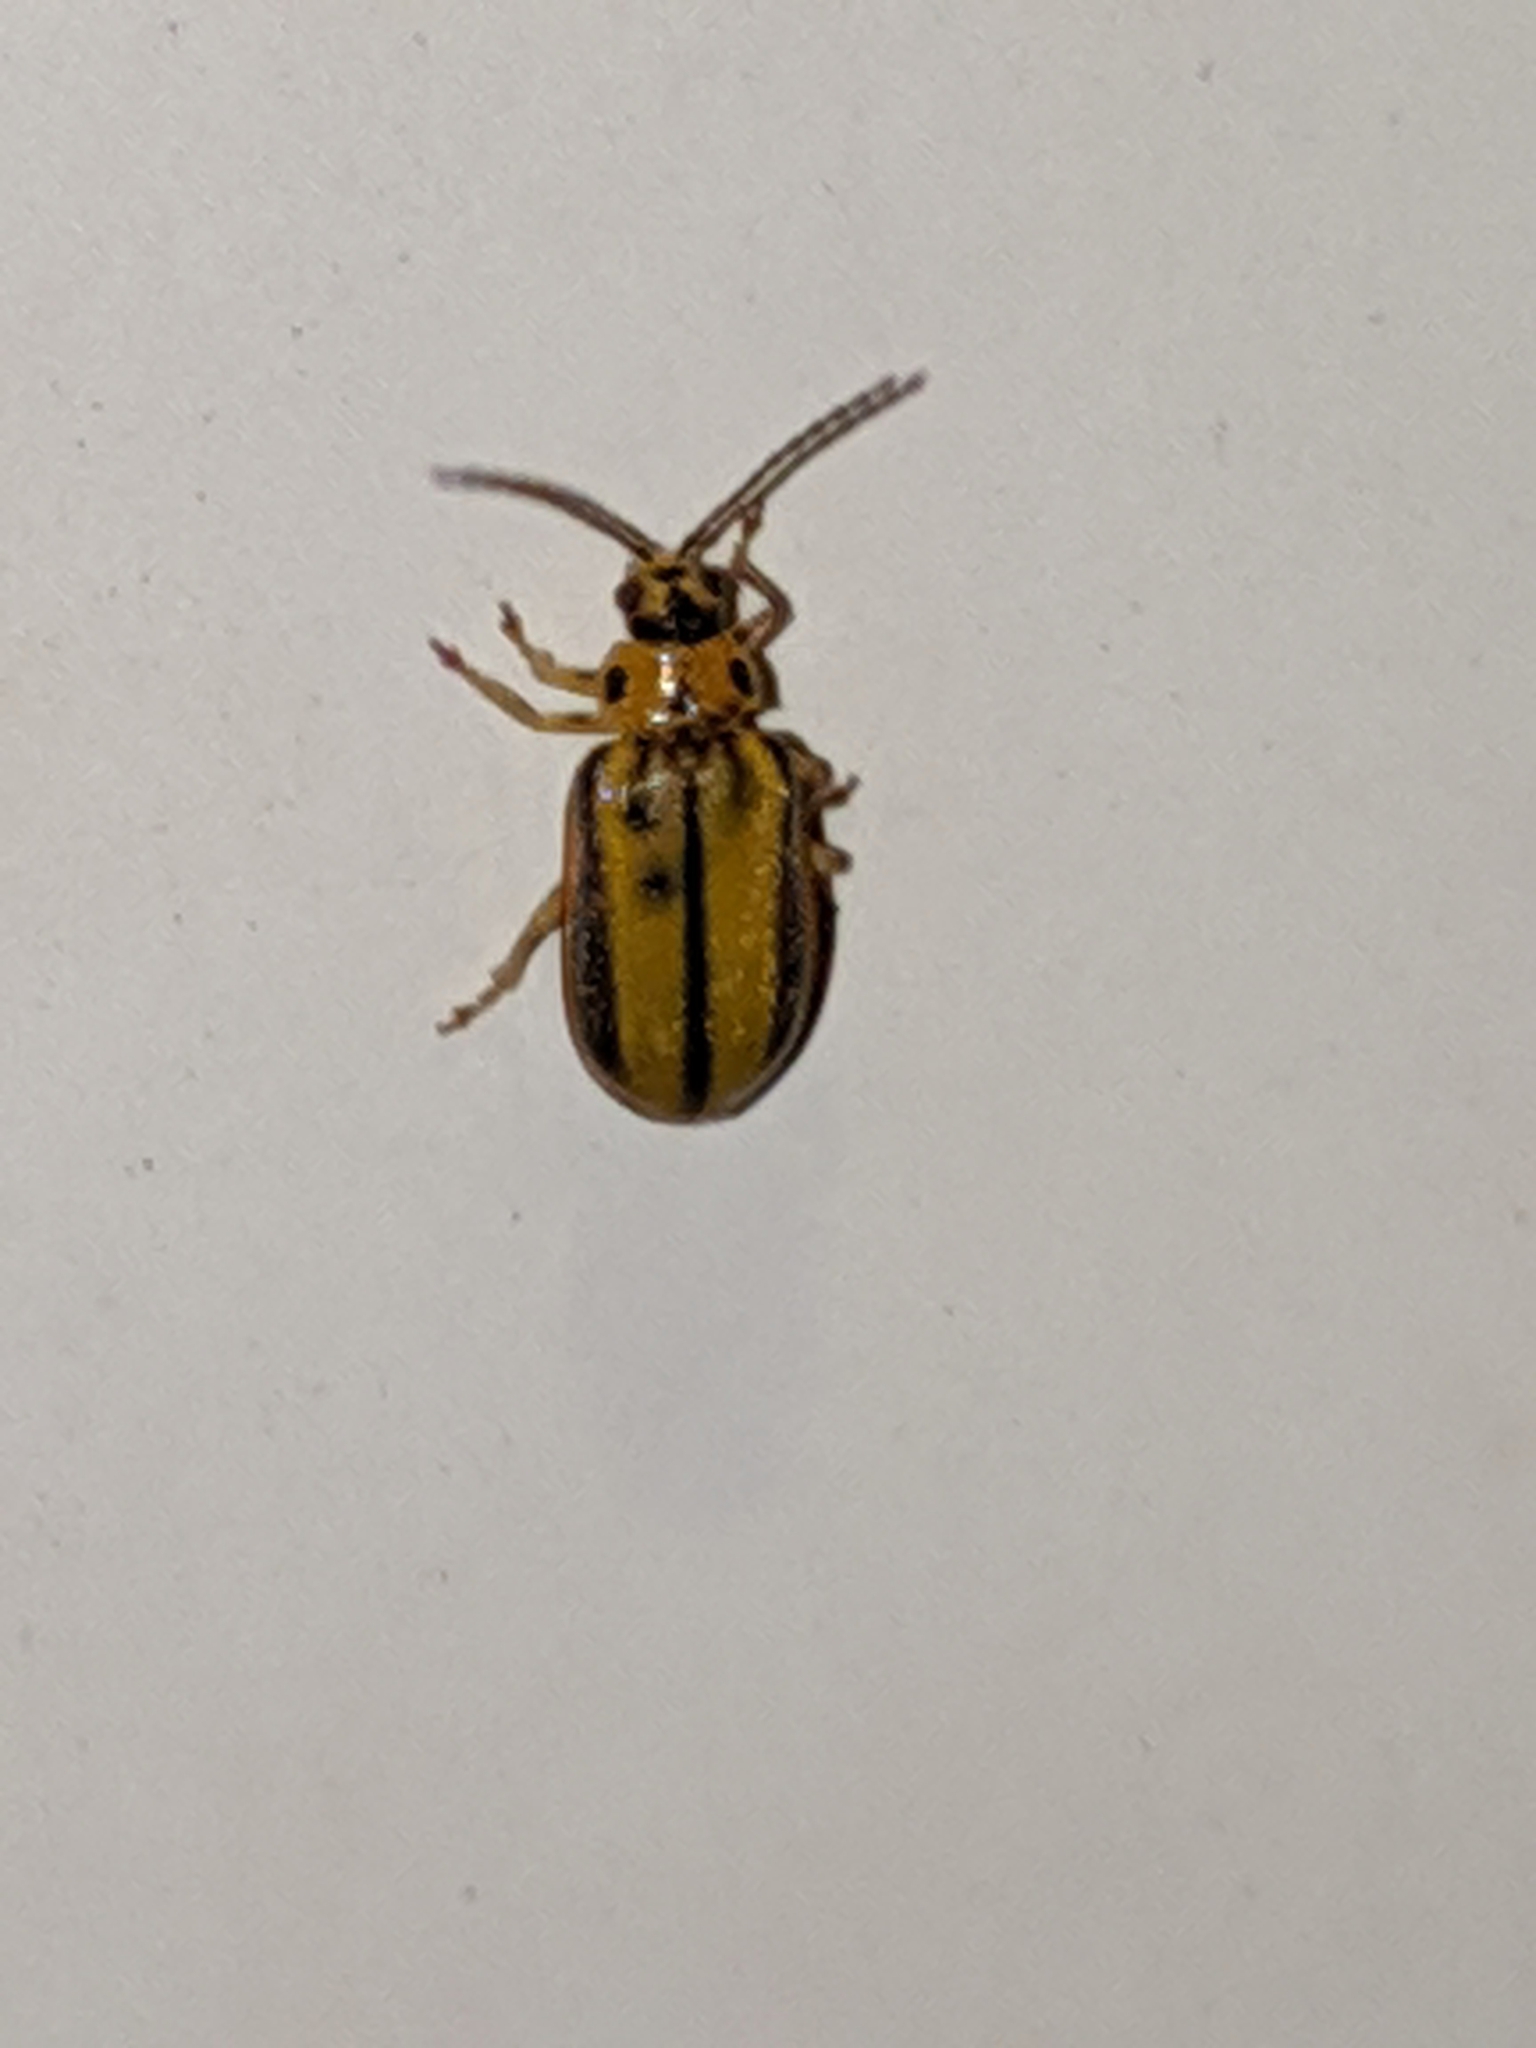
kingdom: Animalia
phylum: Arthropoda
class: Insecta
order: Coleoptera
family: Chrysomelidae
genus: Xanthogaleruca
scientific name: Xanthogaleruca luteola
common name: Elm leaf beetle
